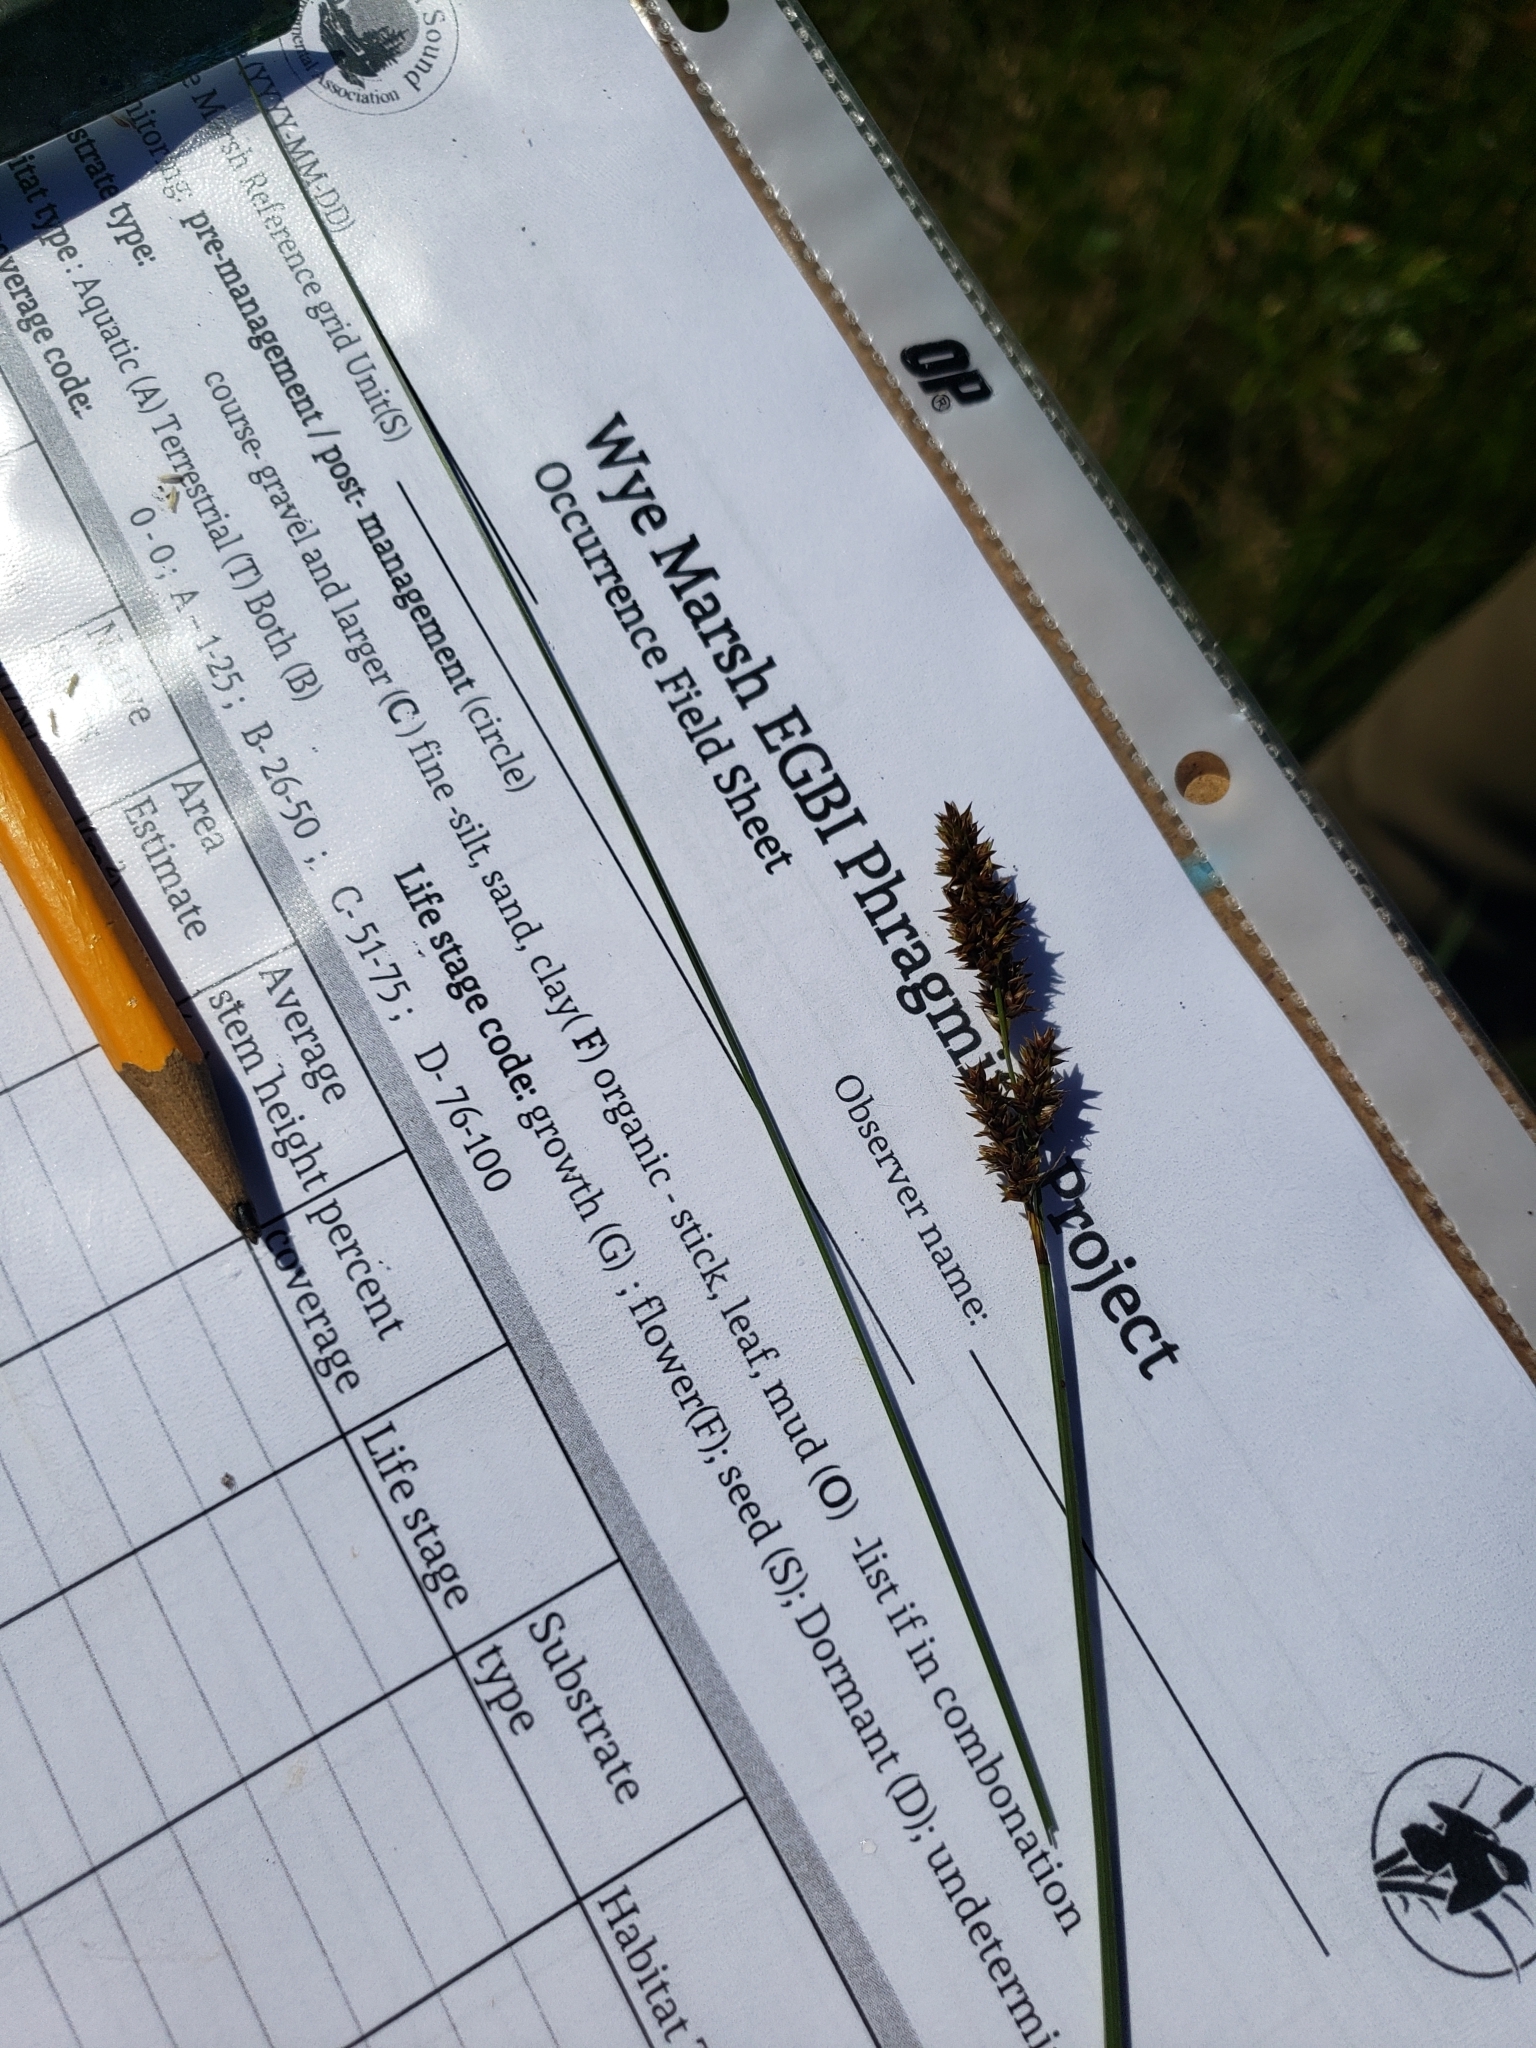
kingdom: Plantae
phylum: Tracheophyta
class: Liliopsida
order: Poales
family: Cyperaceae
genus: Carex
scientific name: Carex diandra
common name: Lesser tussock-sedge
